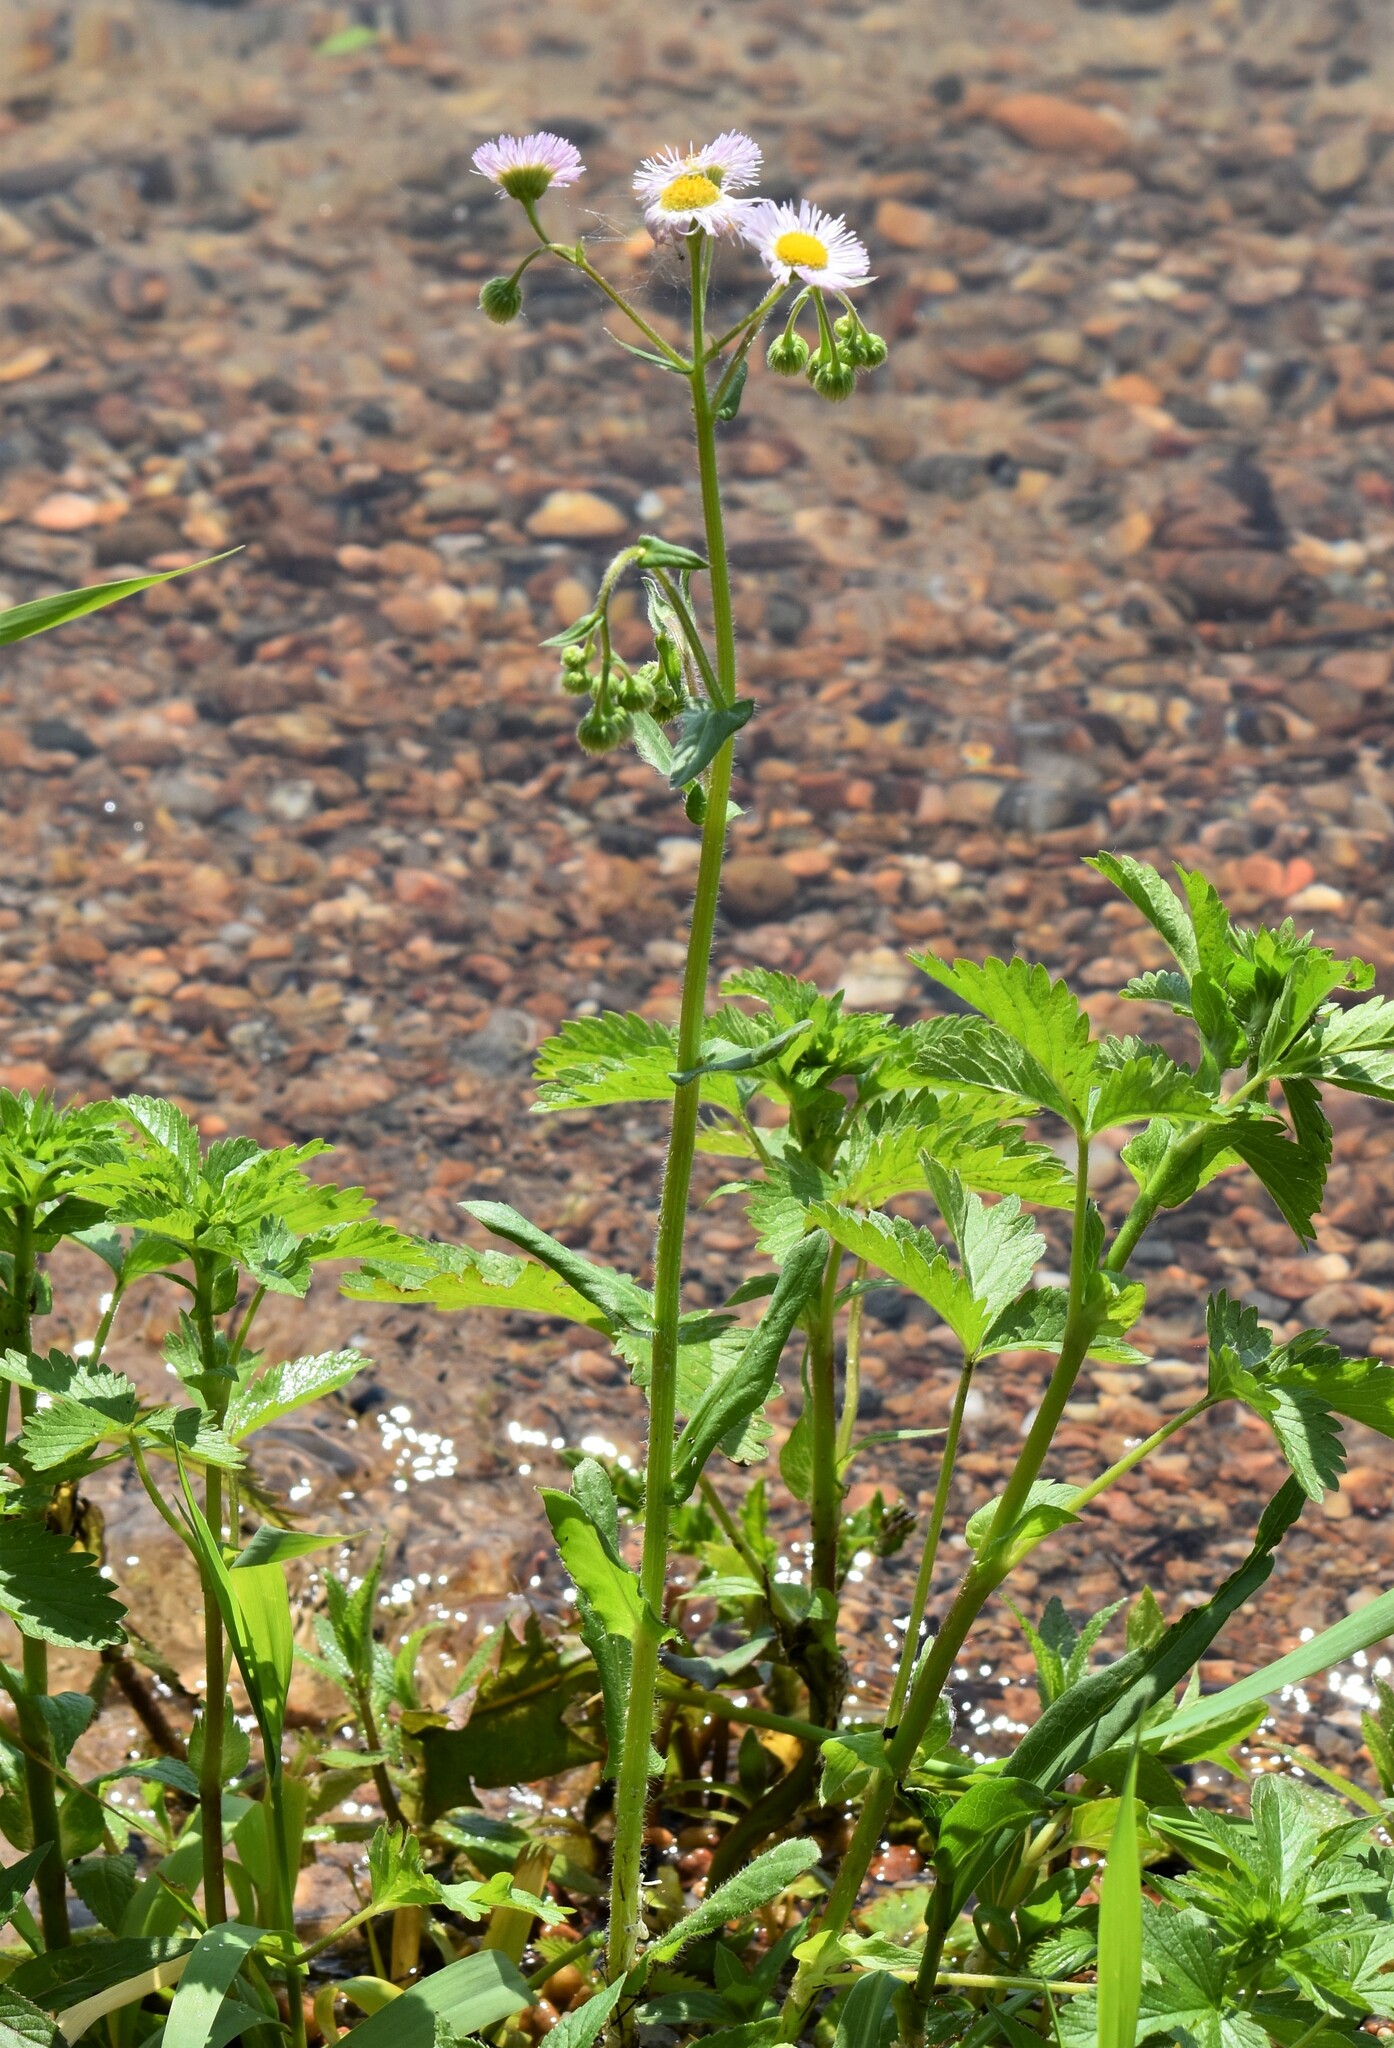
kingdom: Plantae
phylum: Tracheophyta
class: Magnoliopsida
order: Asterales
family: Asteraceae
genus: Erigeron
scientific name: Erigeron philadelphicus
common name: Robin's-plantain
